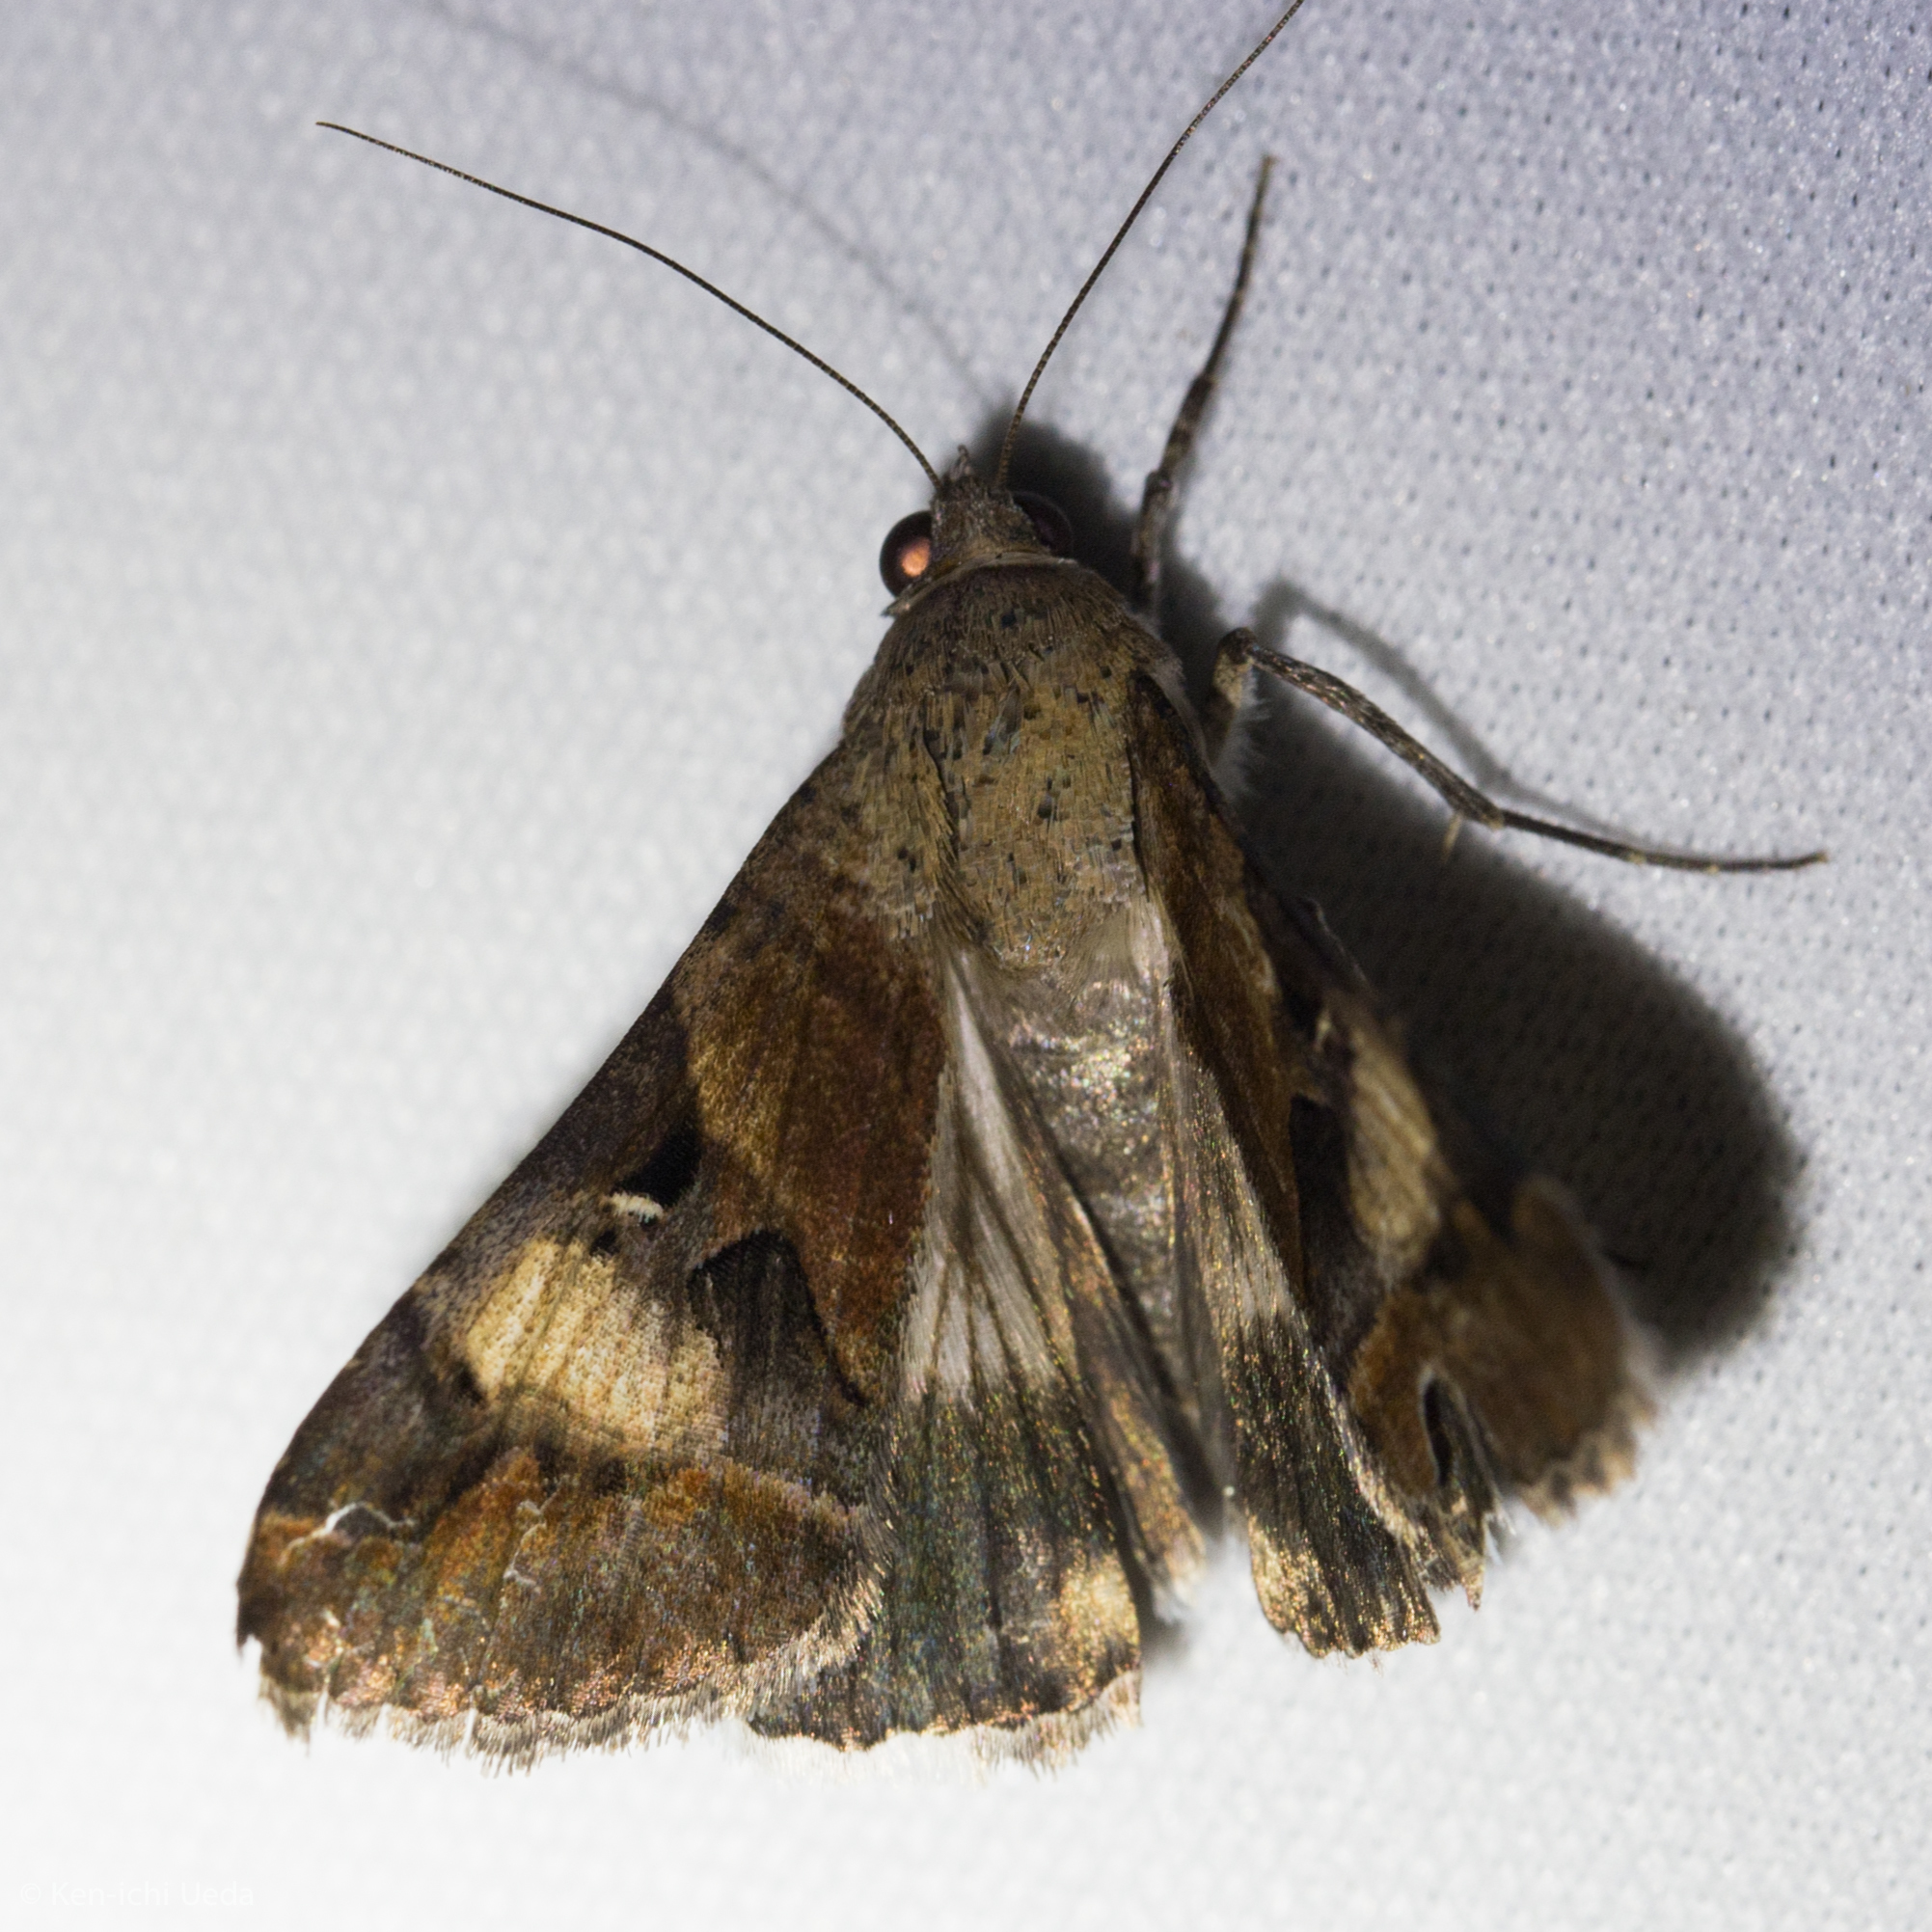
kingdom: Animalia
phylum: Arthropoda
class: Insecta
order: Lepidoptera
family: Erebidae
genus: Melipotis
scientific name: Melipotis perpendicularis
